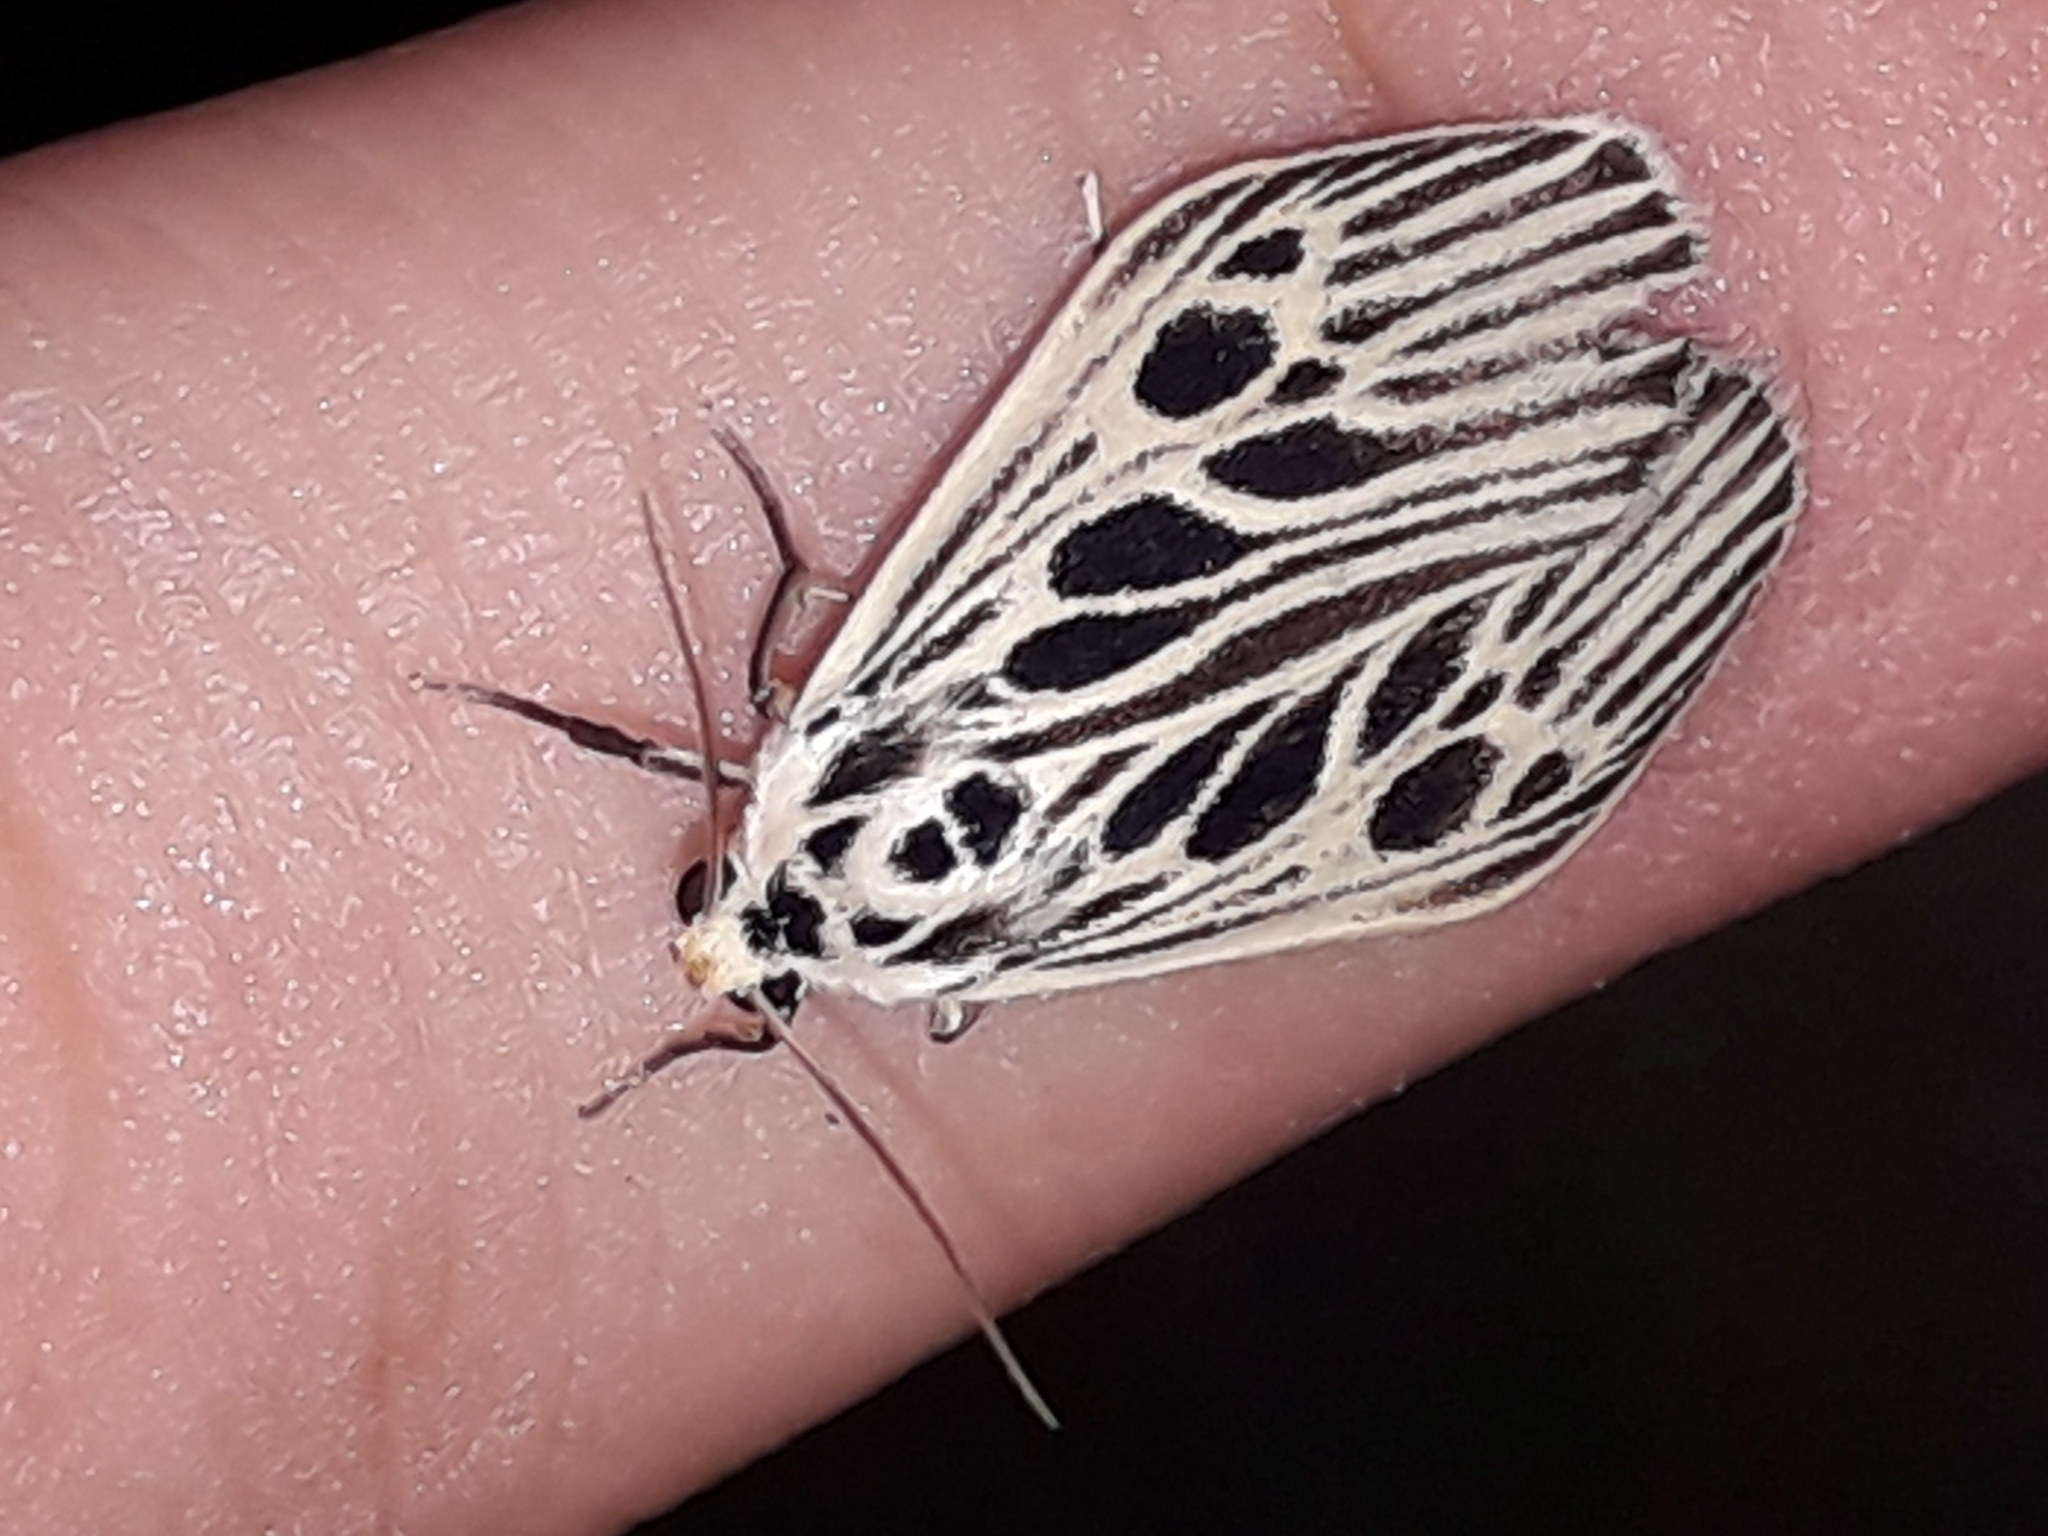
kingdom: Animalia
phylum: Arthropoda
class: Insecta
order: Lepidoptera
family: Erebidae
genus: Pliniola
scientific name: Pliniola gibba
